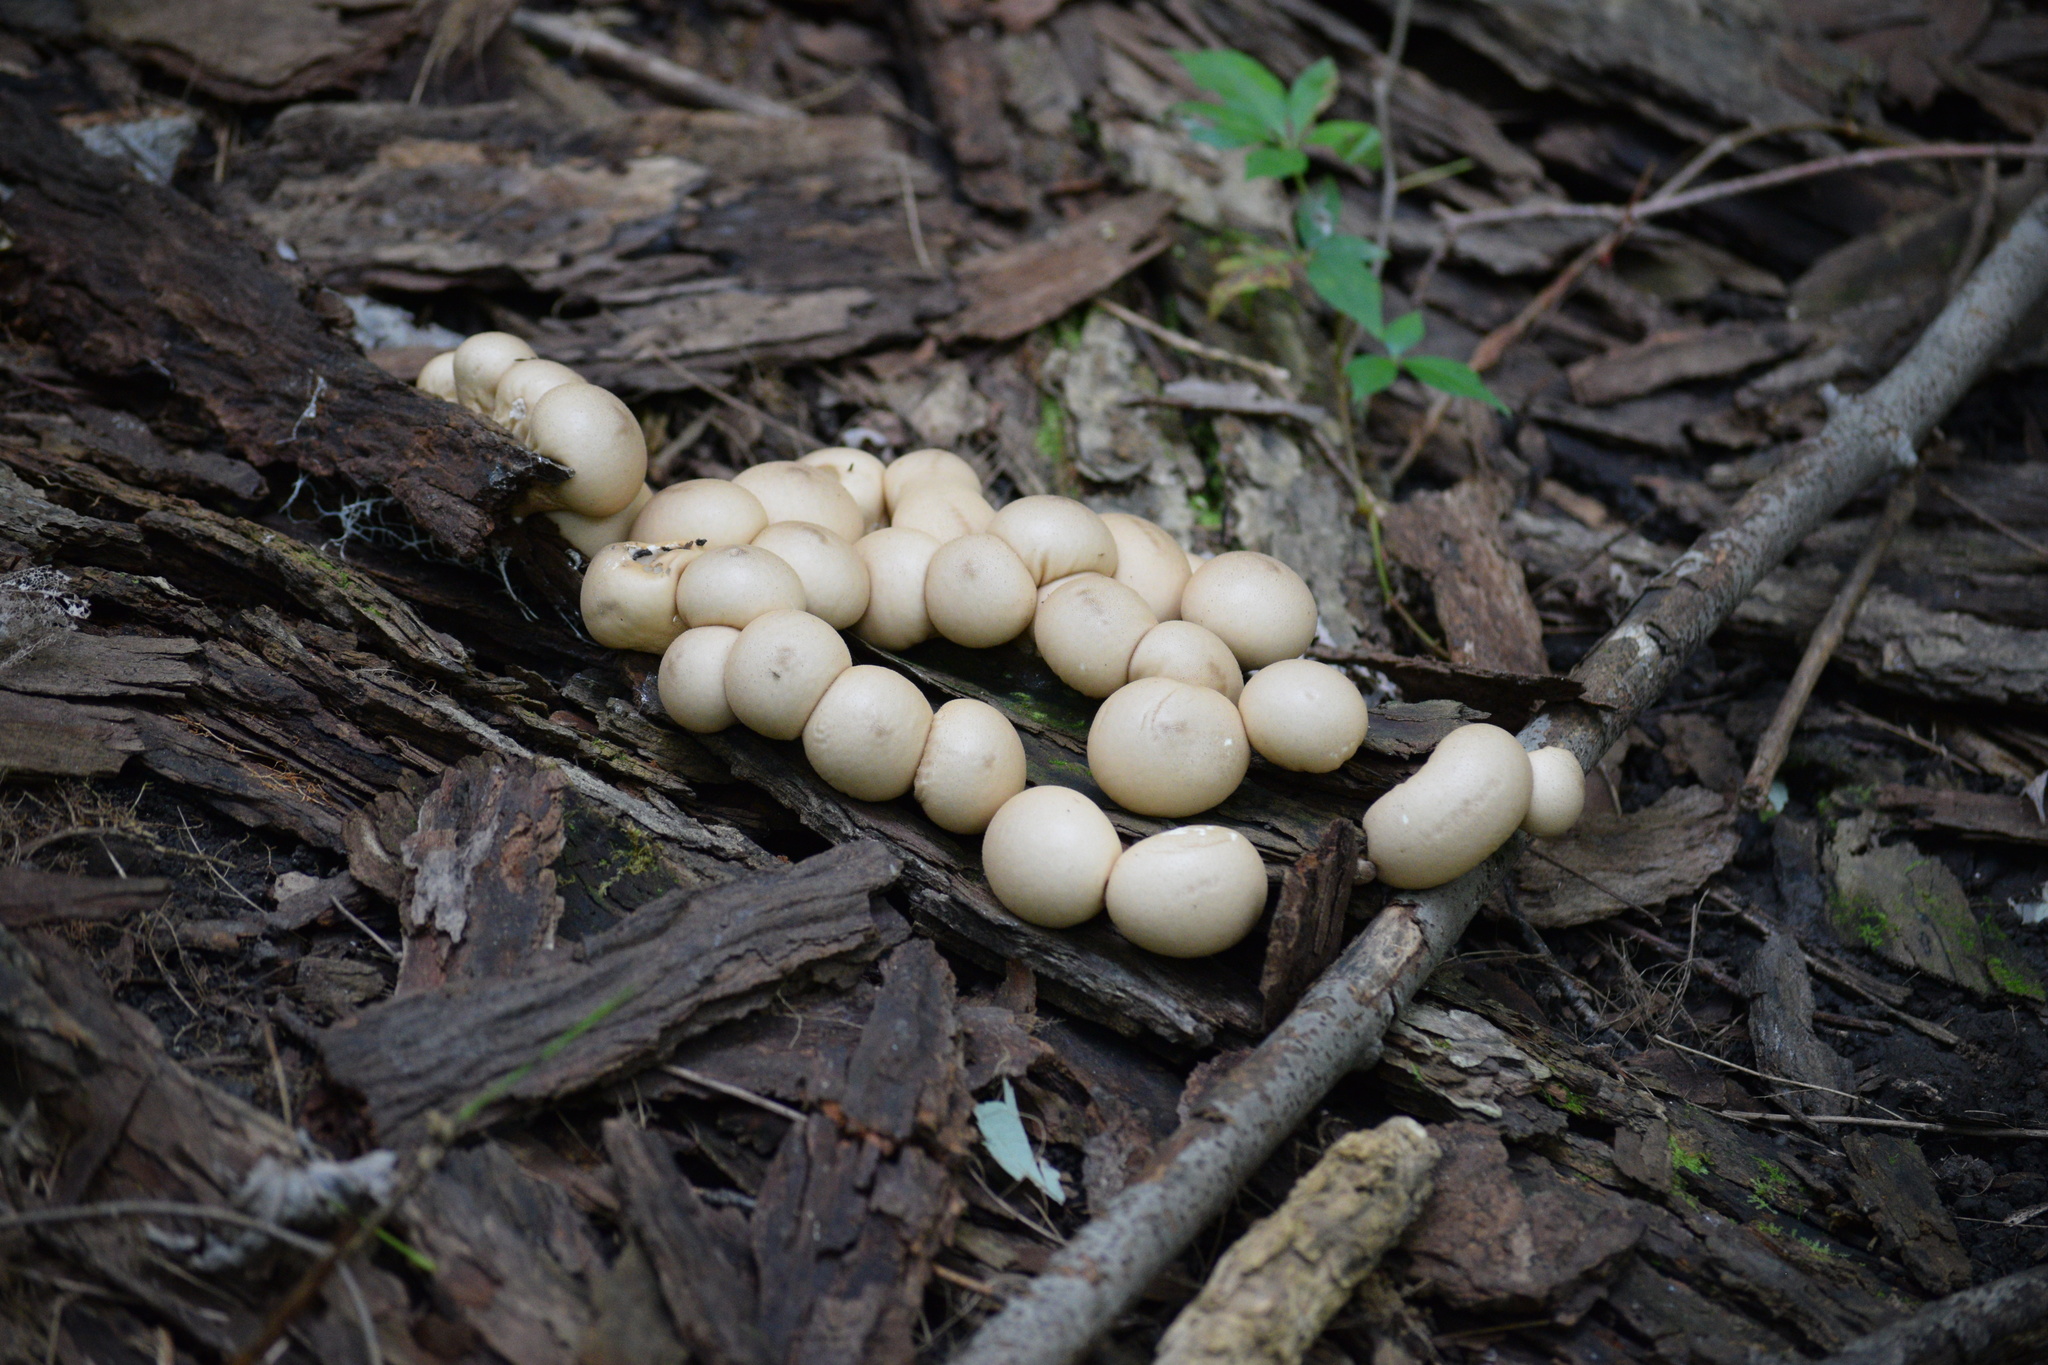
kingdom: Fungi
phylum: Basidiomycota
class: Agaricomycetes
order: Agaricales
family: Lycoperdaceae
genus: Apioperdon
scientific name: Apioperdon pyriforme
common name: Pear-shaped puffball
